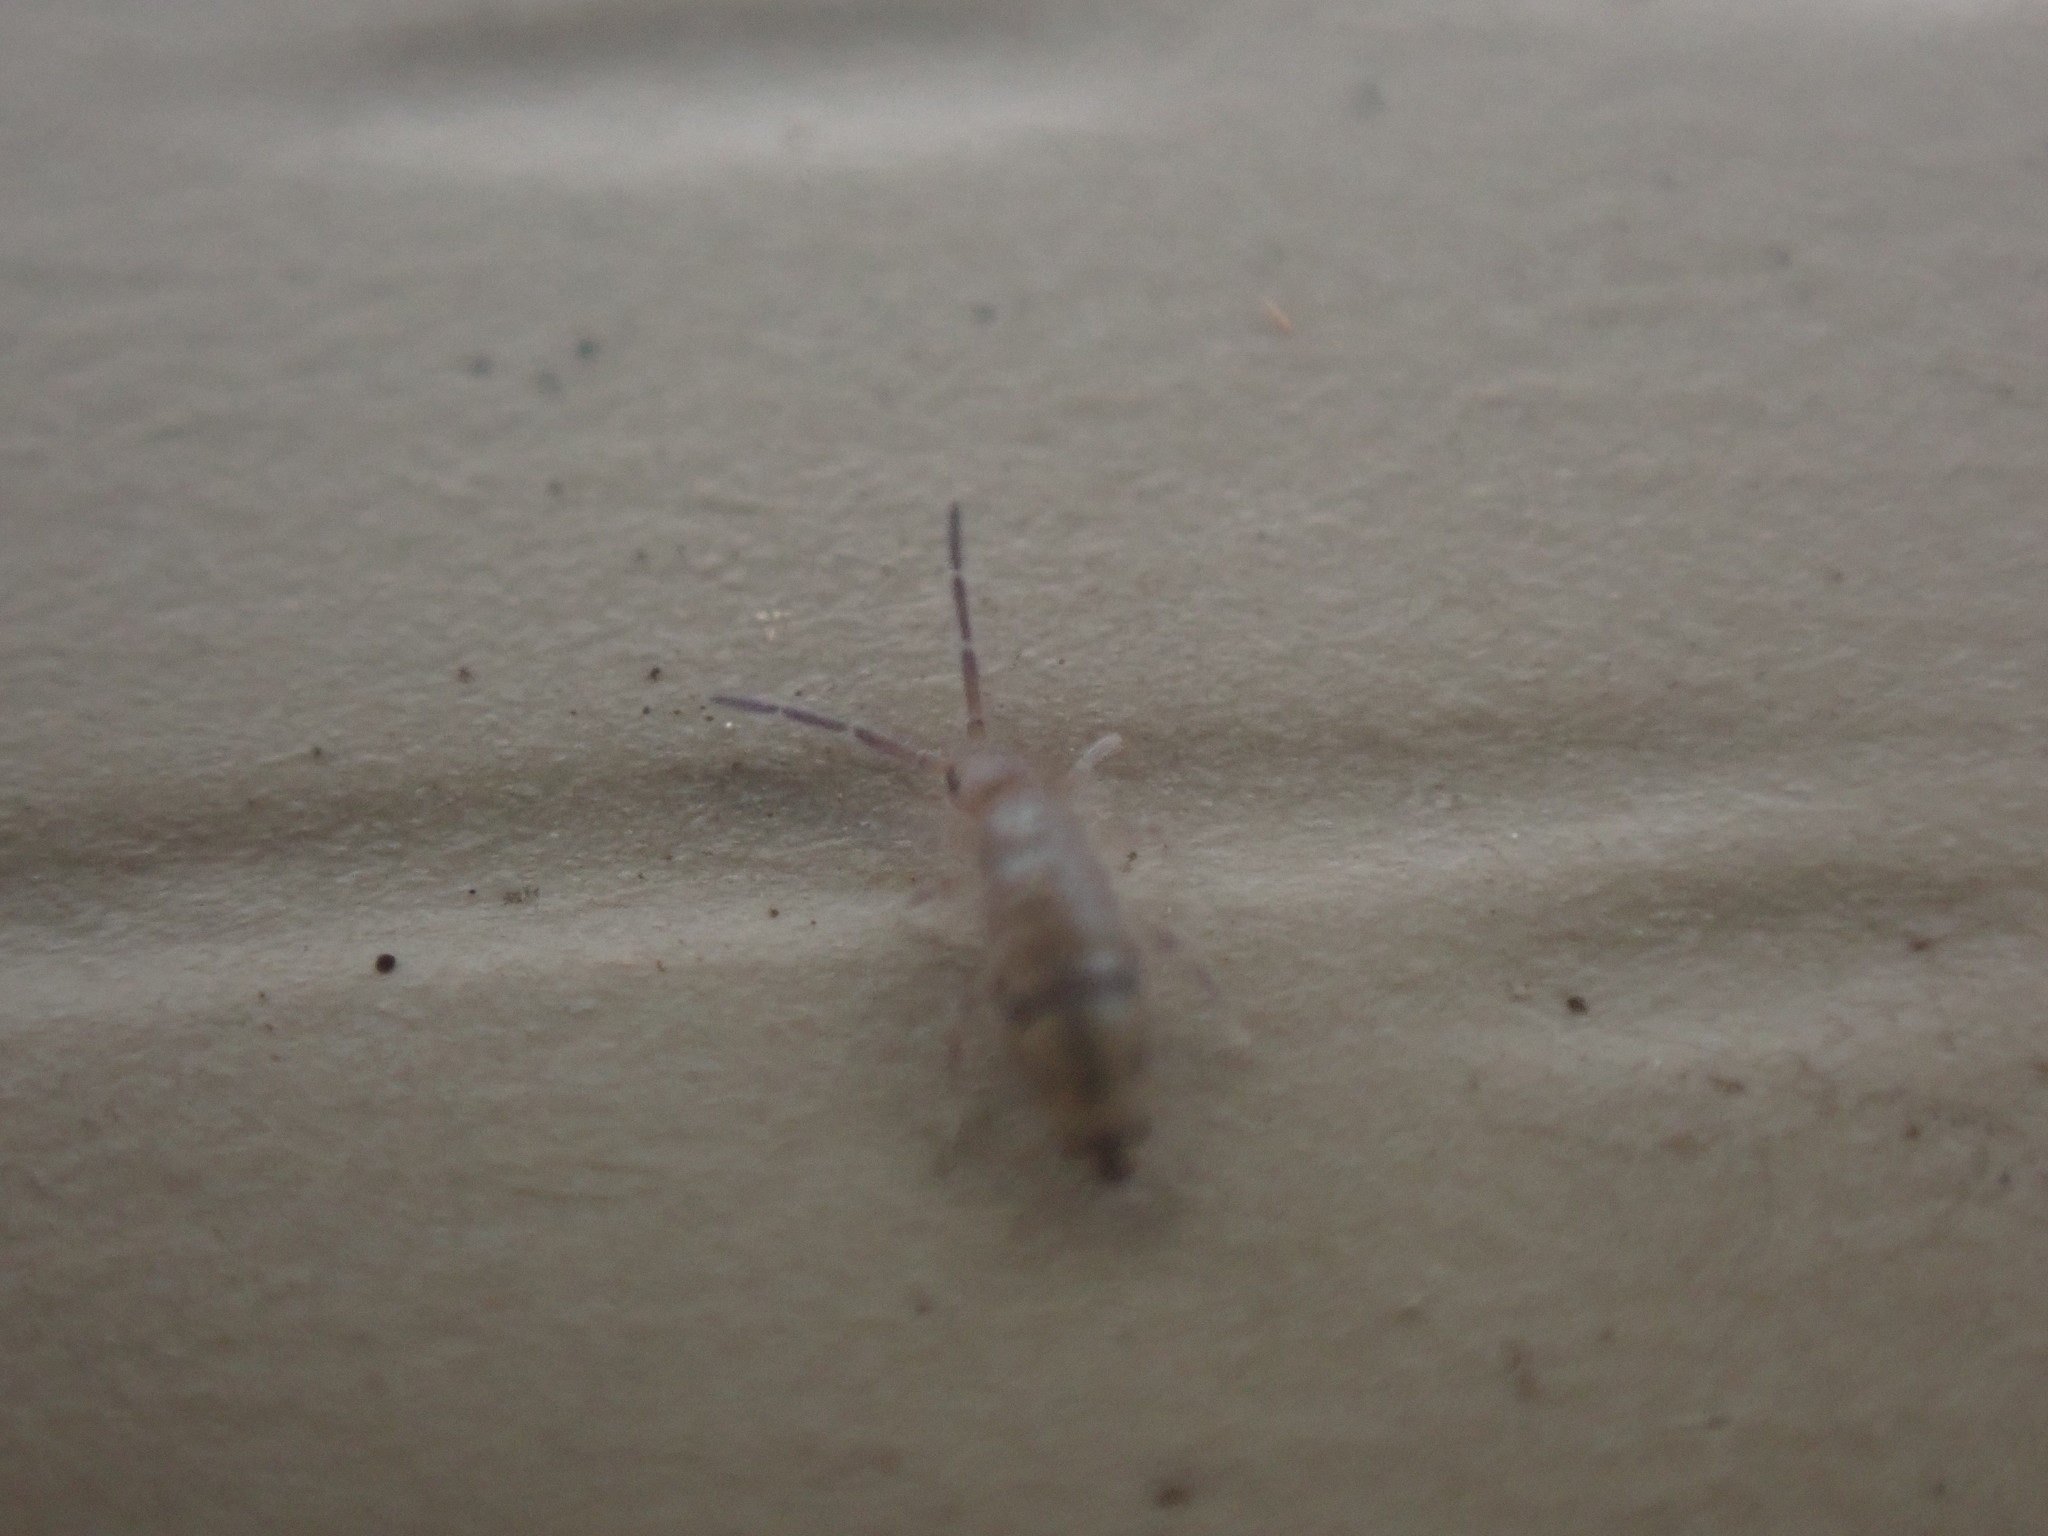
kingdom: Animalia
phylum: Arthropoda
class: Collembola
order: Entomobryomorpha
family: Entomobryidae
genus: Willowsia
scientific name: Willowsia nigromaculata
